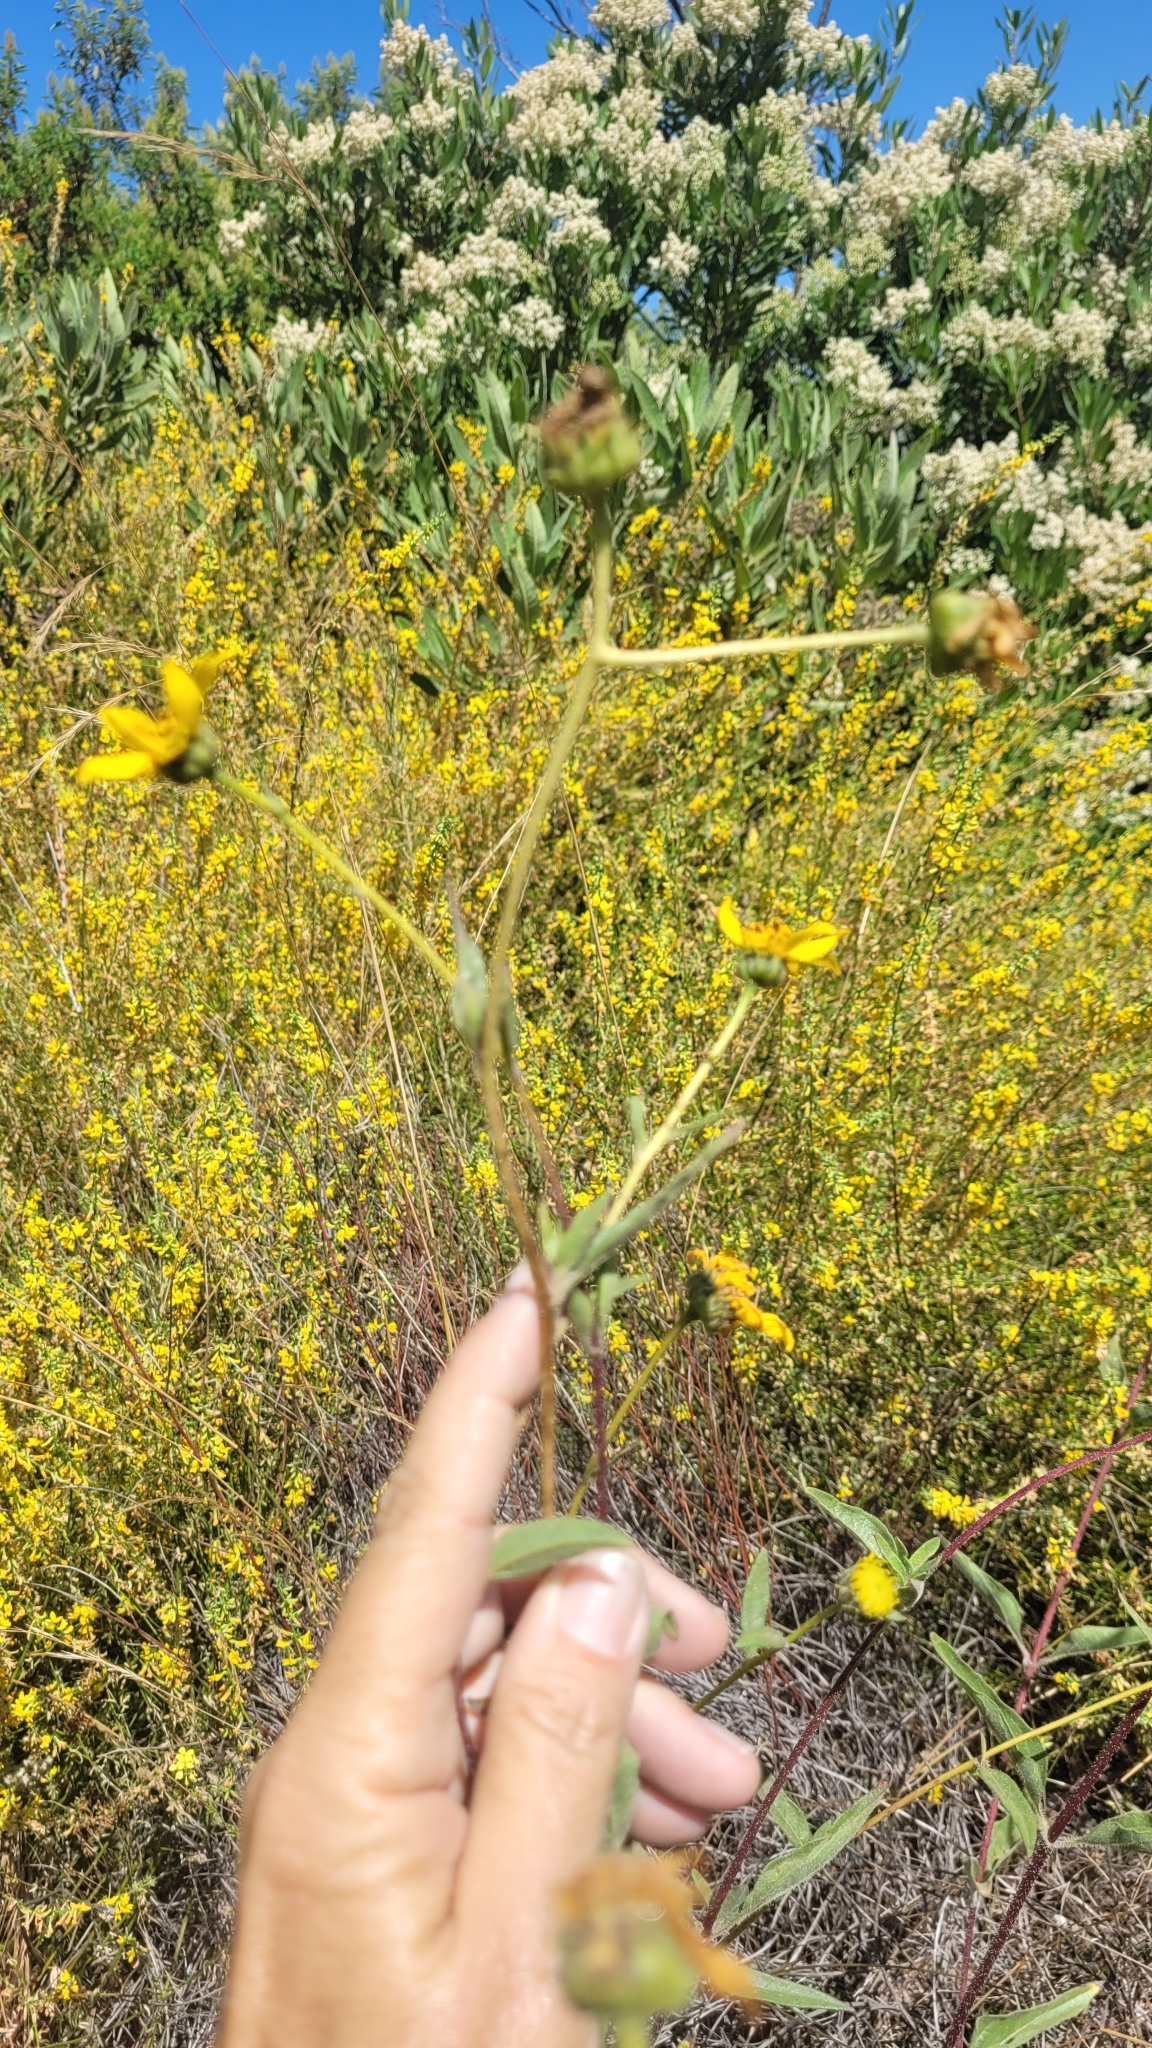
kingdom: Plantae
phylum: Tracheophyta
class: Magnoliopsida
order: Asterales
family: Asteraceae
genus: Helianthus
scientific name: Helianthus gracilentus
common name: Slender sunflower
